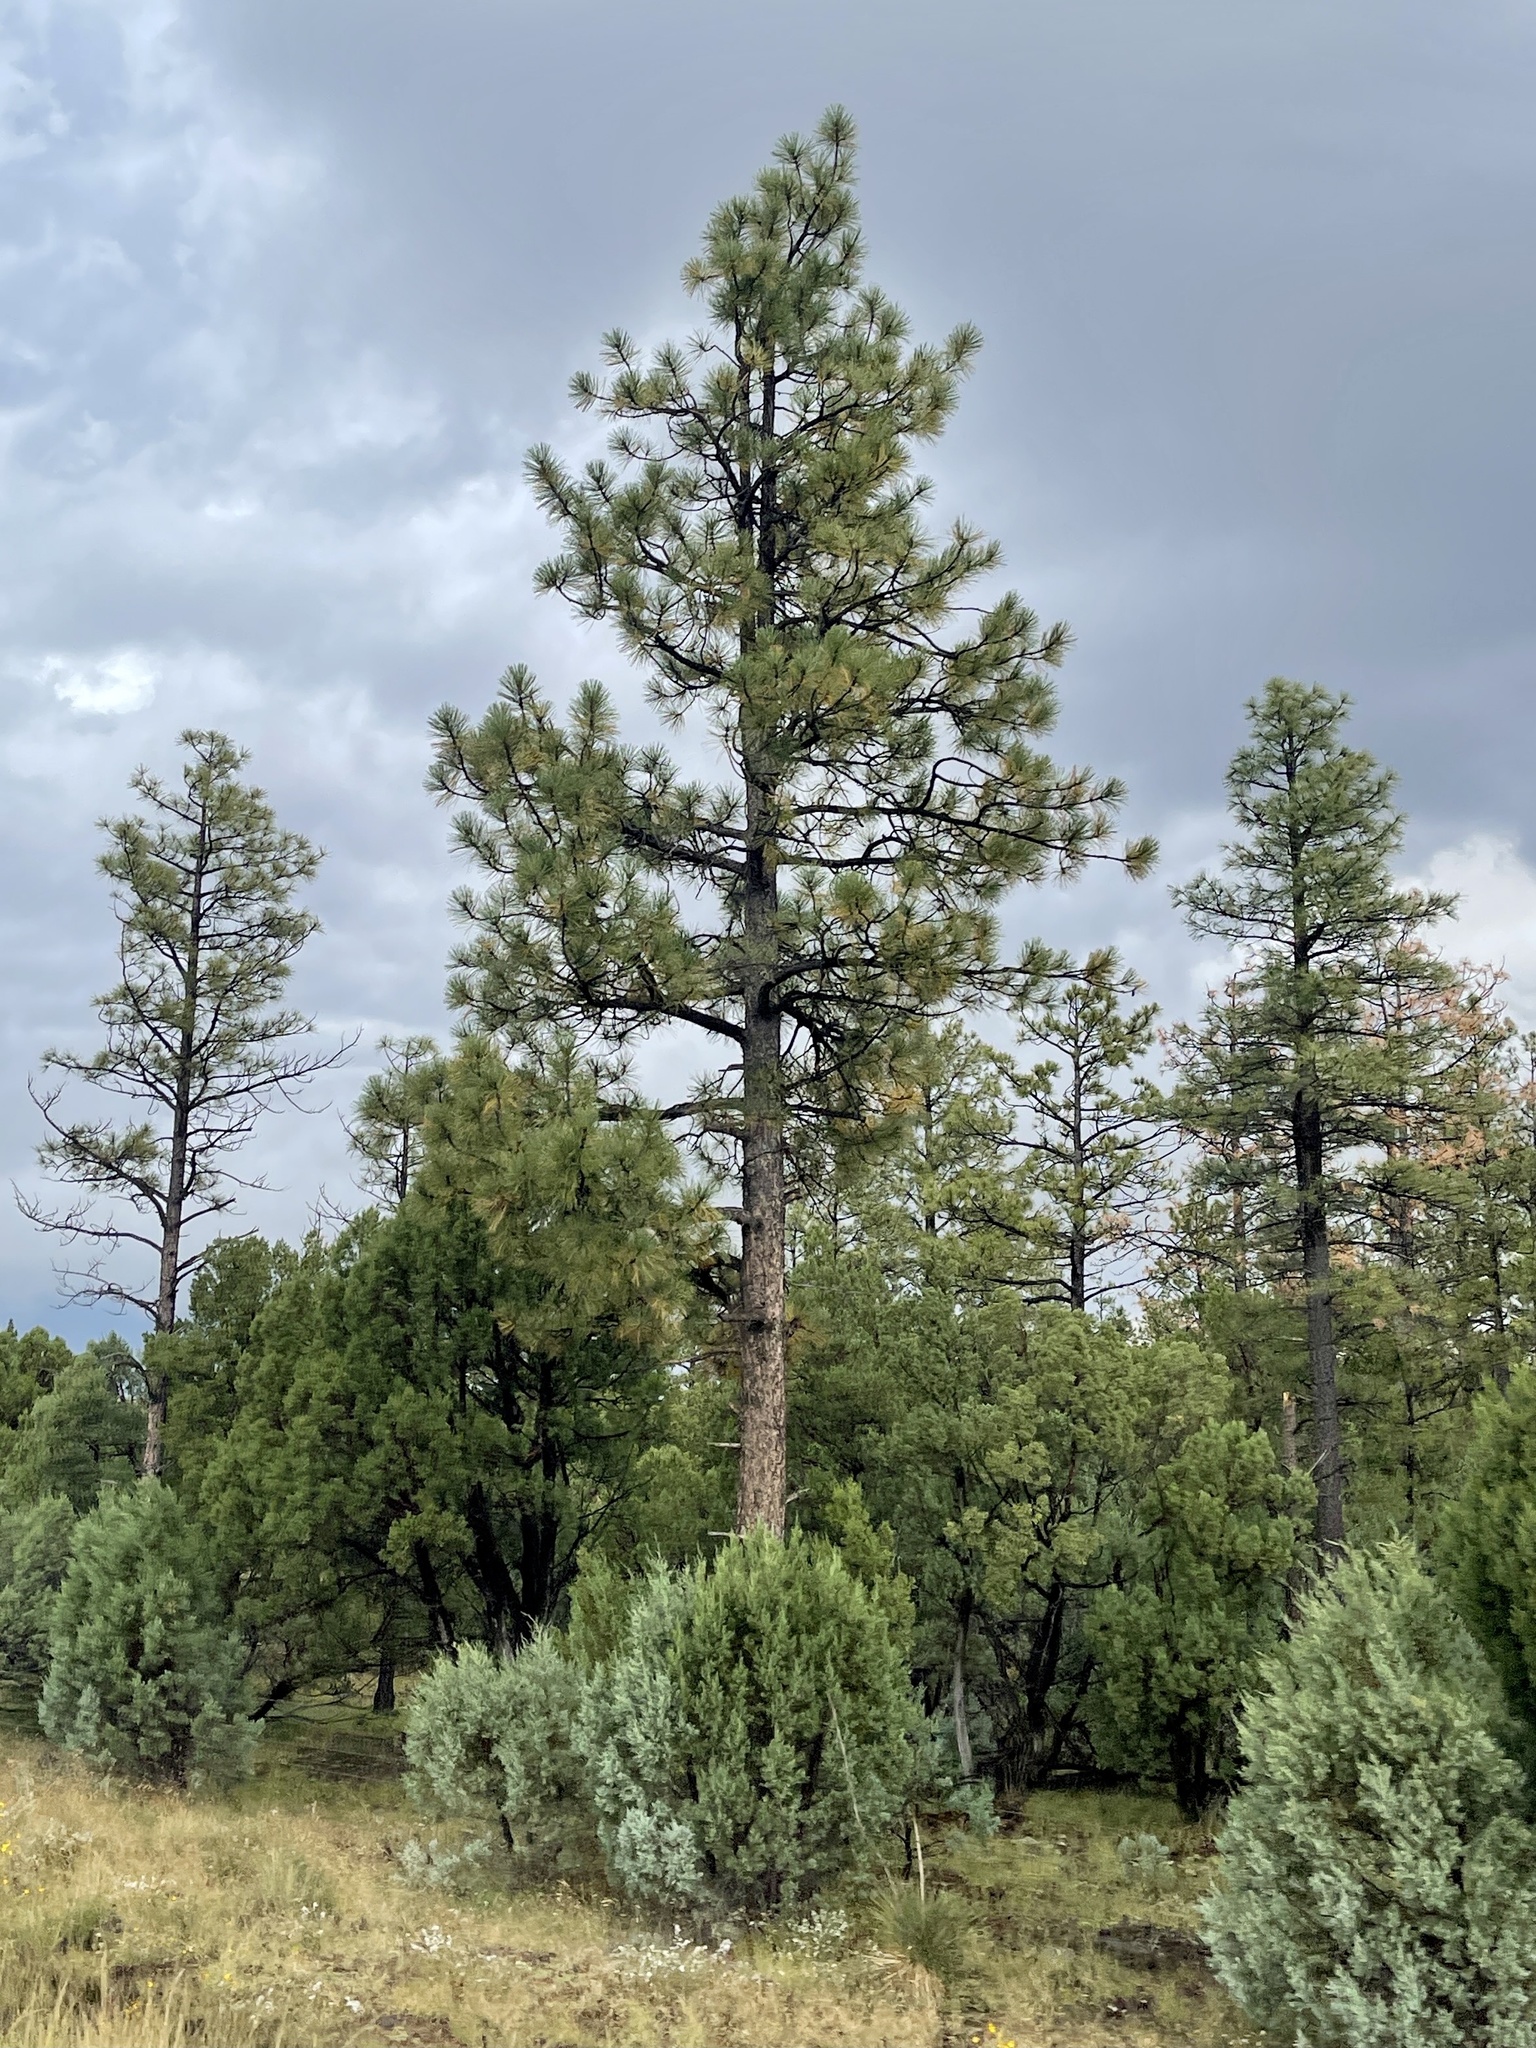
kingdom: Plantae
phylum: Tracheophyta
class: Pinopsida
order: Pinales
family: Pinaceae
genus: Pinus
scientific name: Pinus ponderosa
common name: Western yellow-pine
